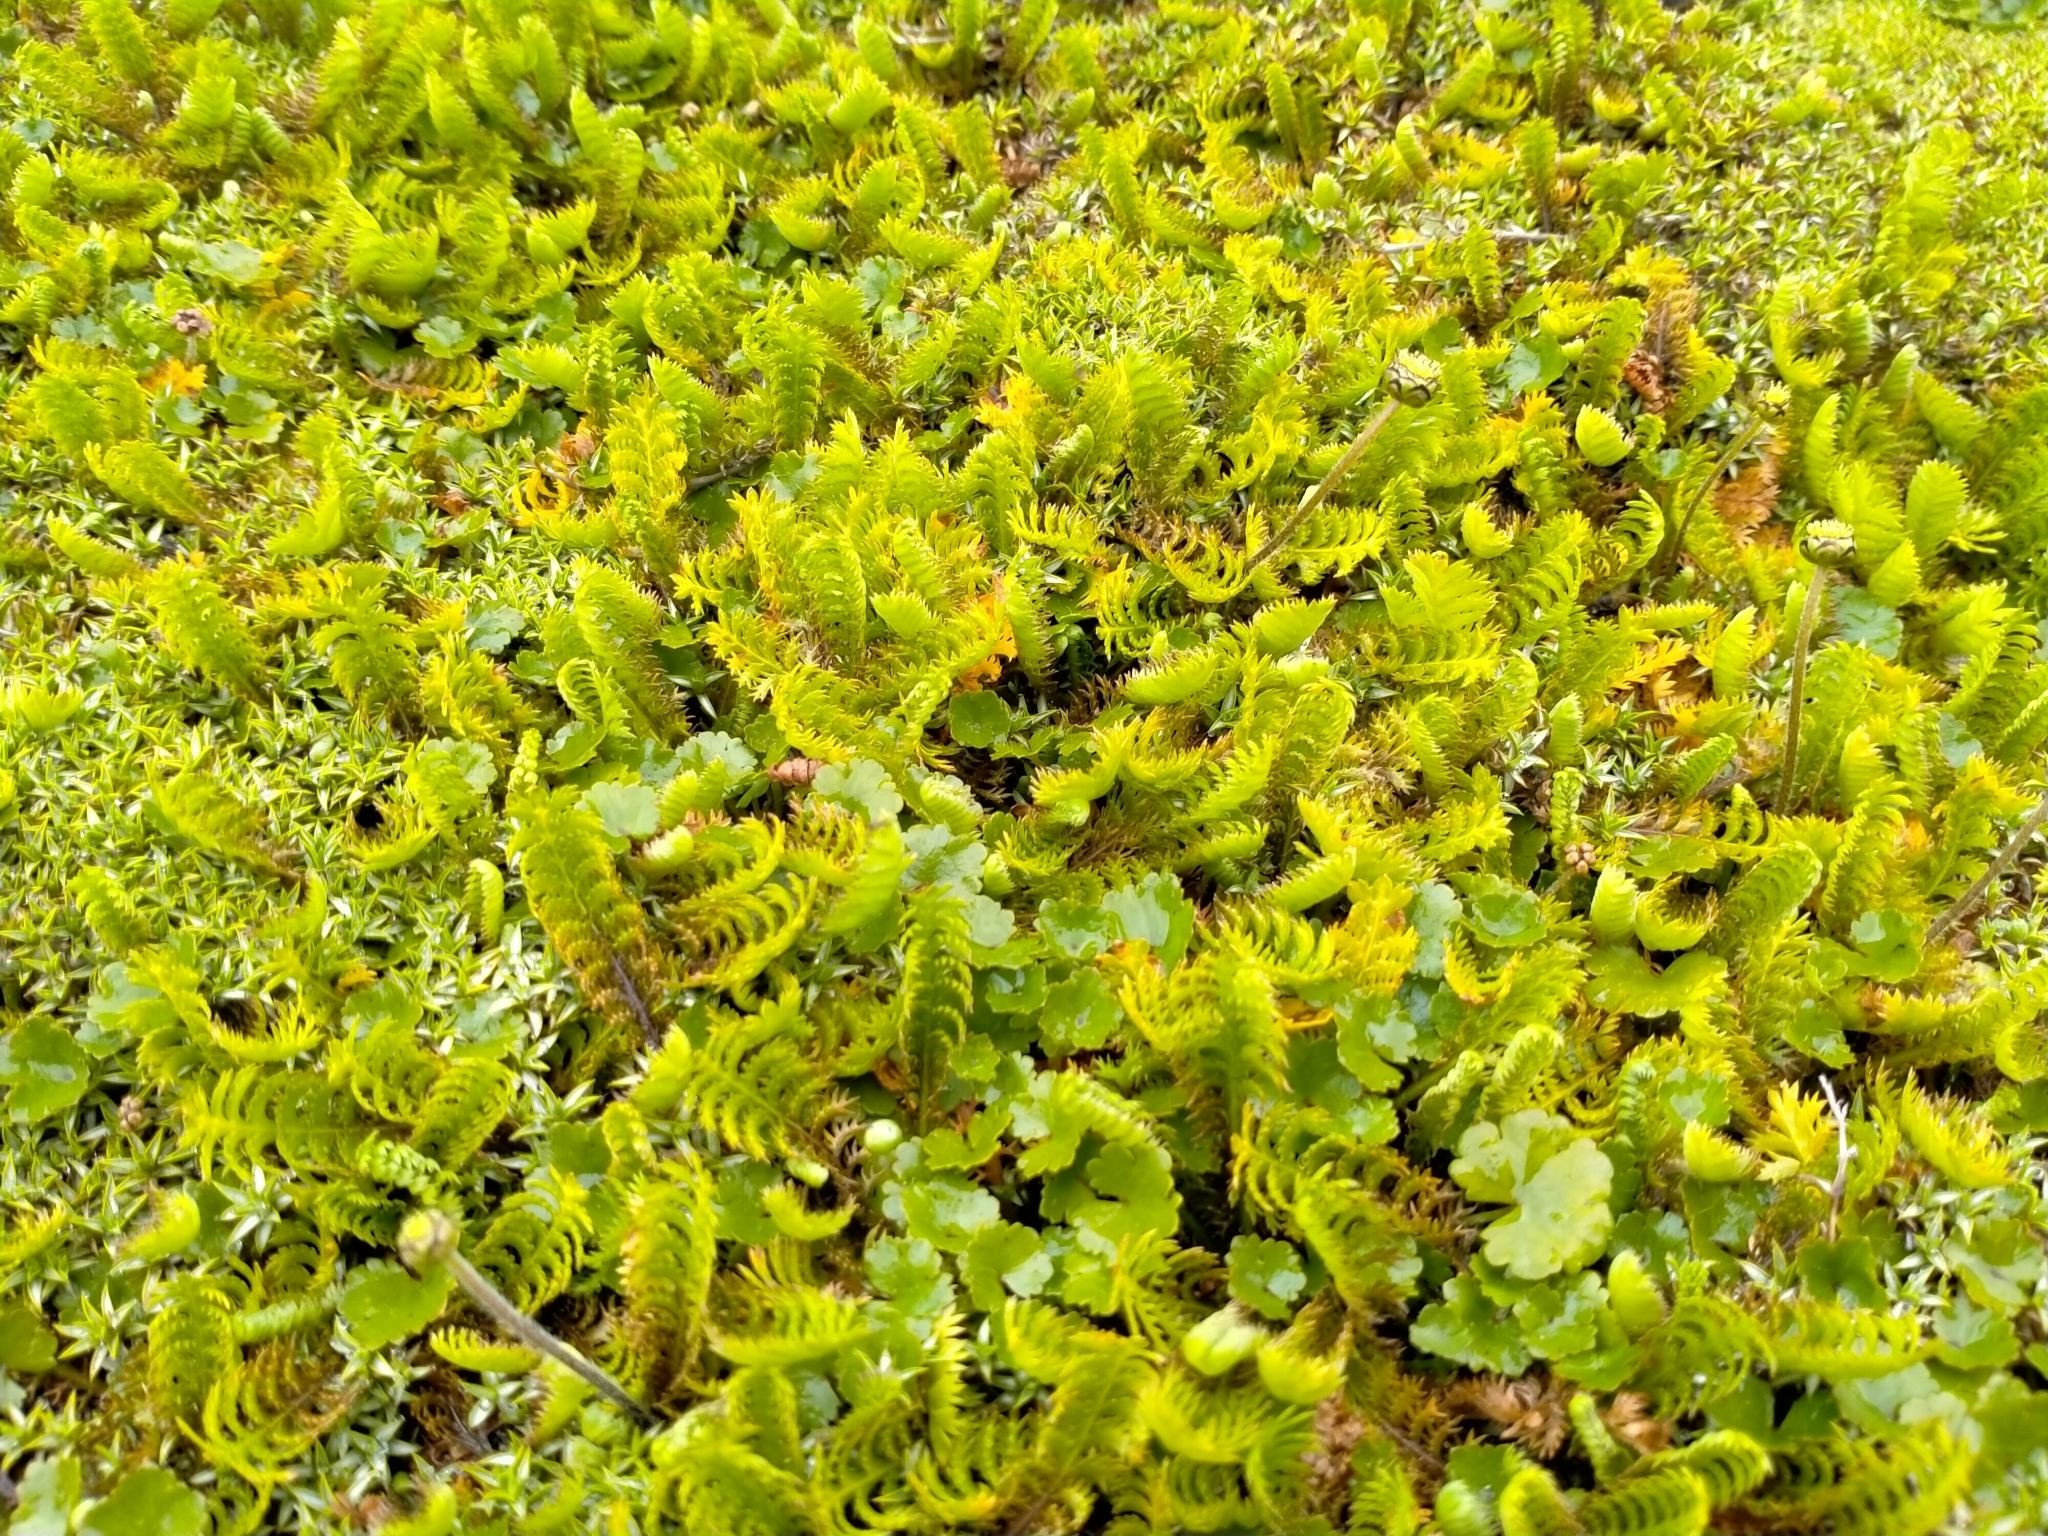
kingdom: Plantae
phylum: Tracheophyta
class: Magnoliopsida
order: Asterales
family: Asteraceae
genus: Leptinella
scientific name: Leptinella squalida
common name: New zealand brass-buttons
